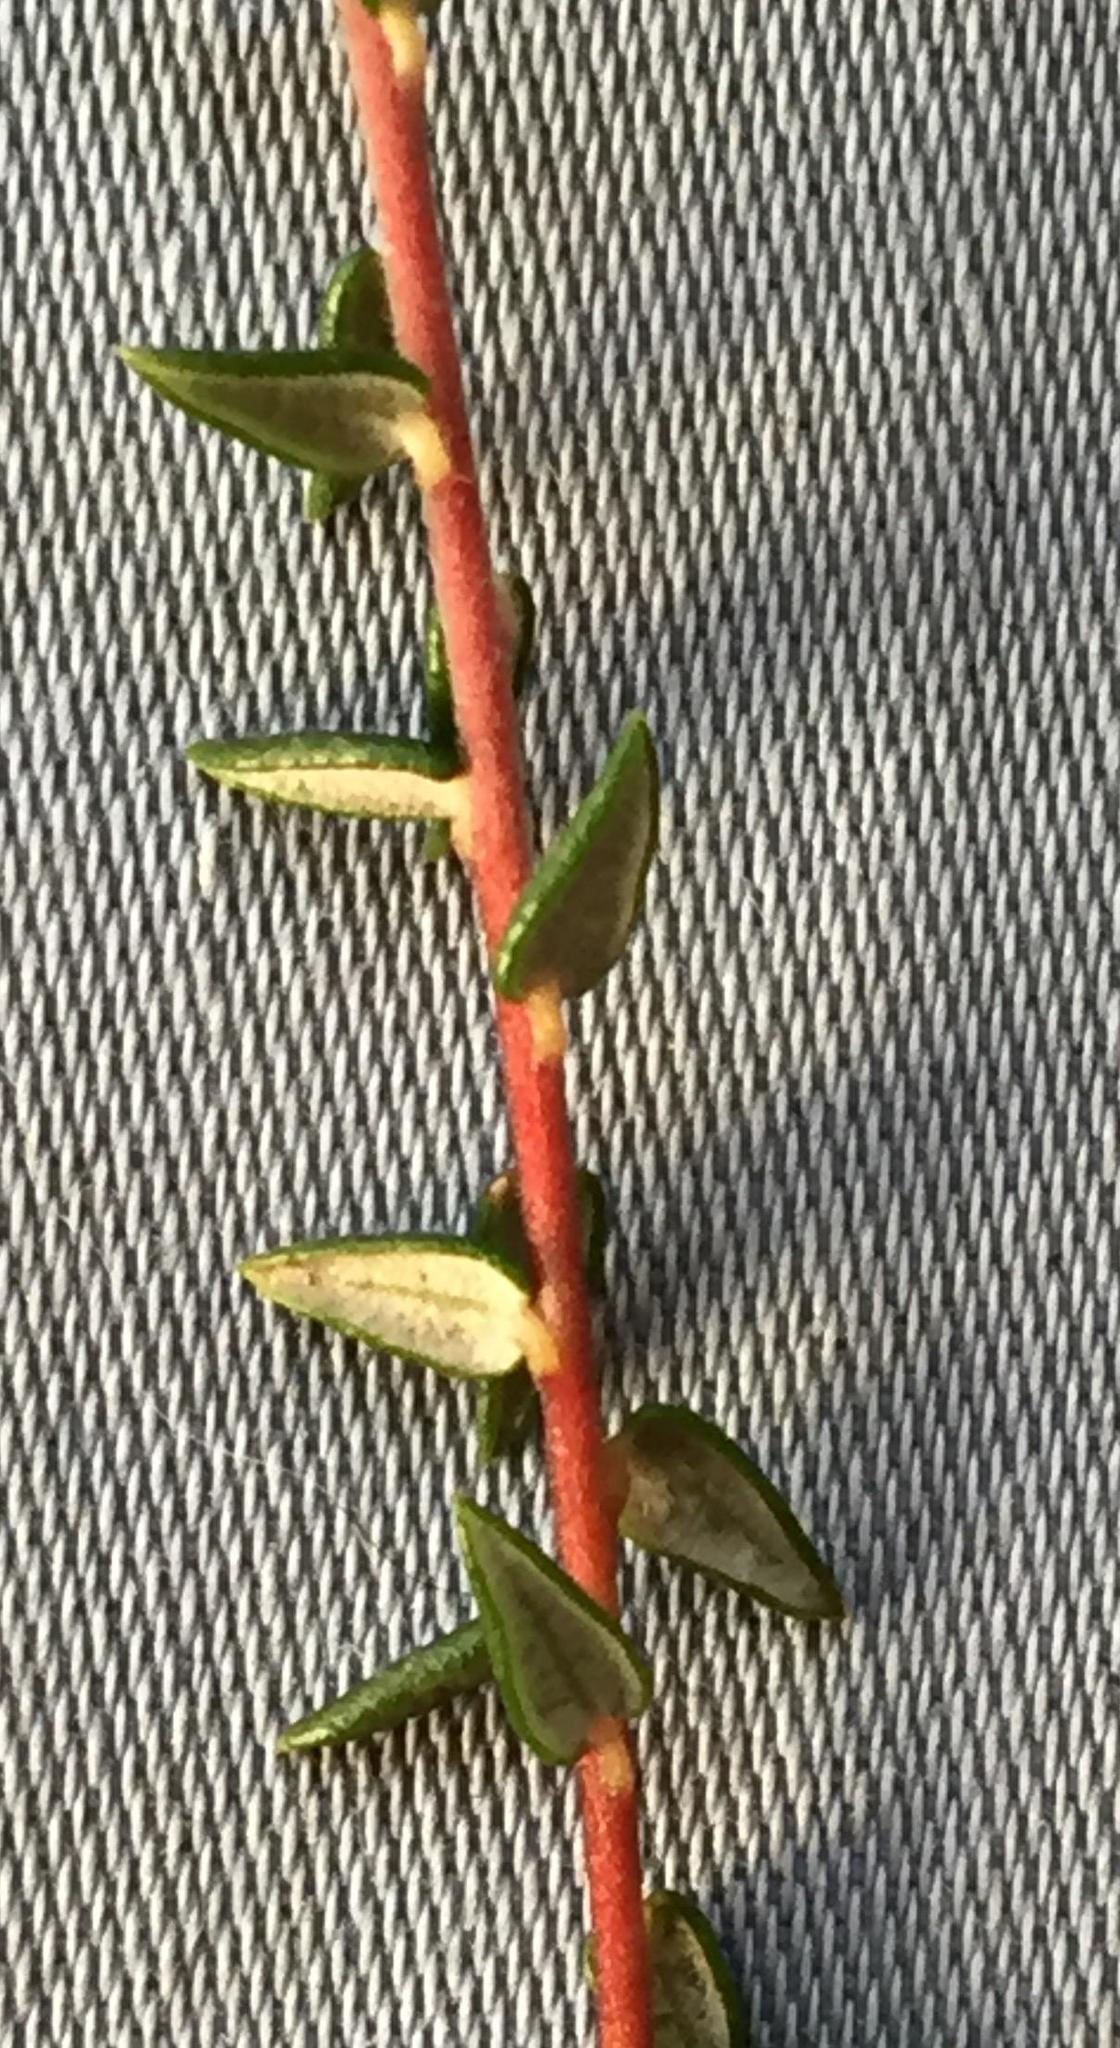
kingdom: Plantae
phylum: Tracheophyta
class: Magnoliopsida
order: Rosales
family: Rhamnaceae
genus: Phylica
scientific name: Phylica debilis
